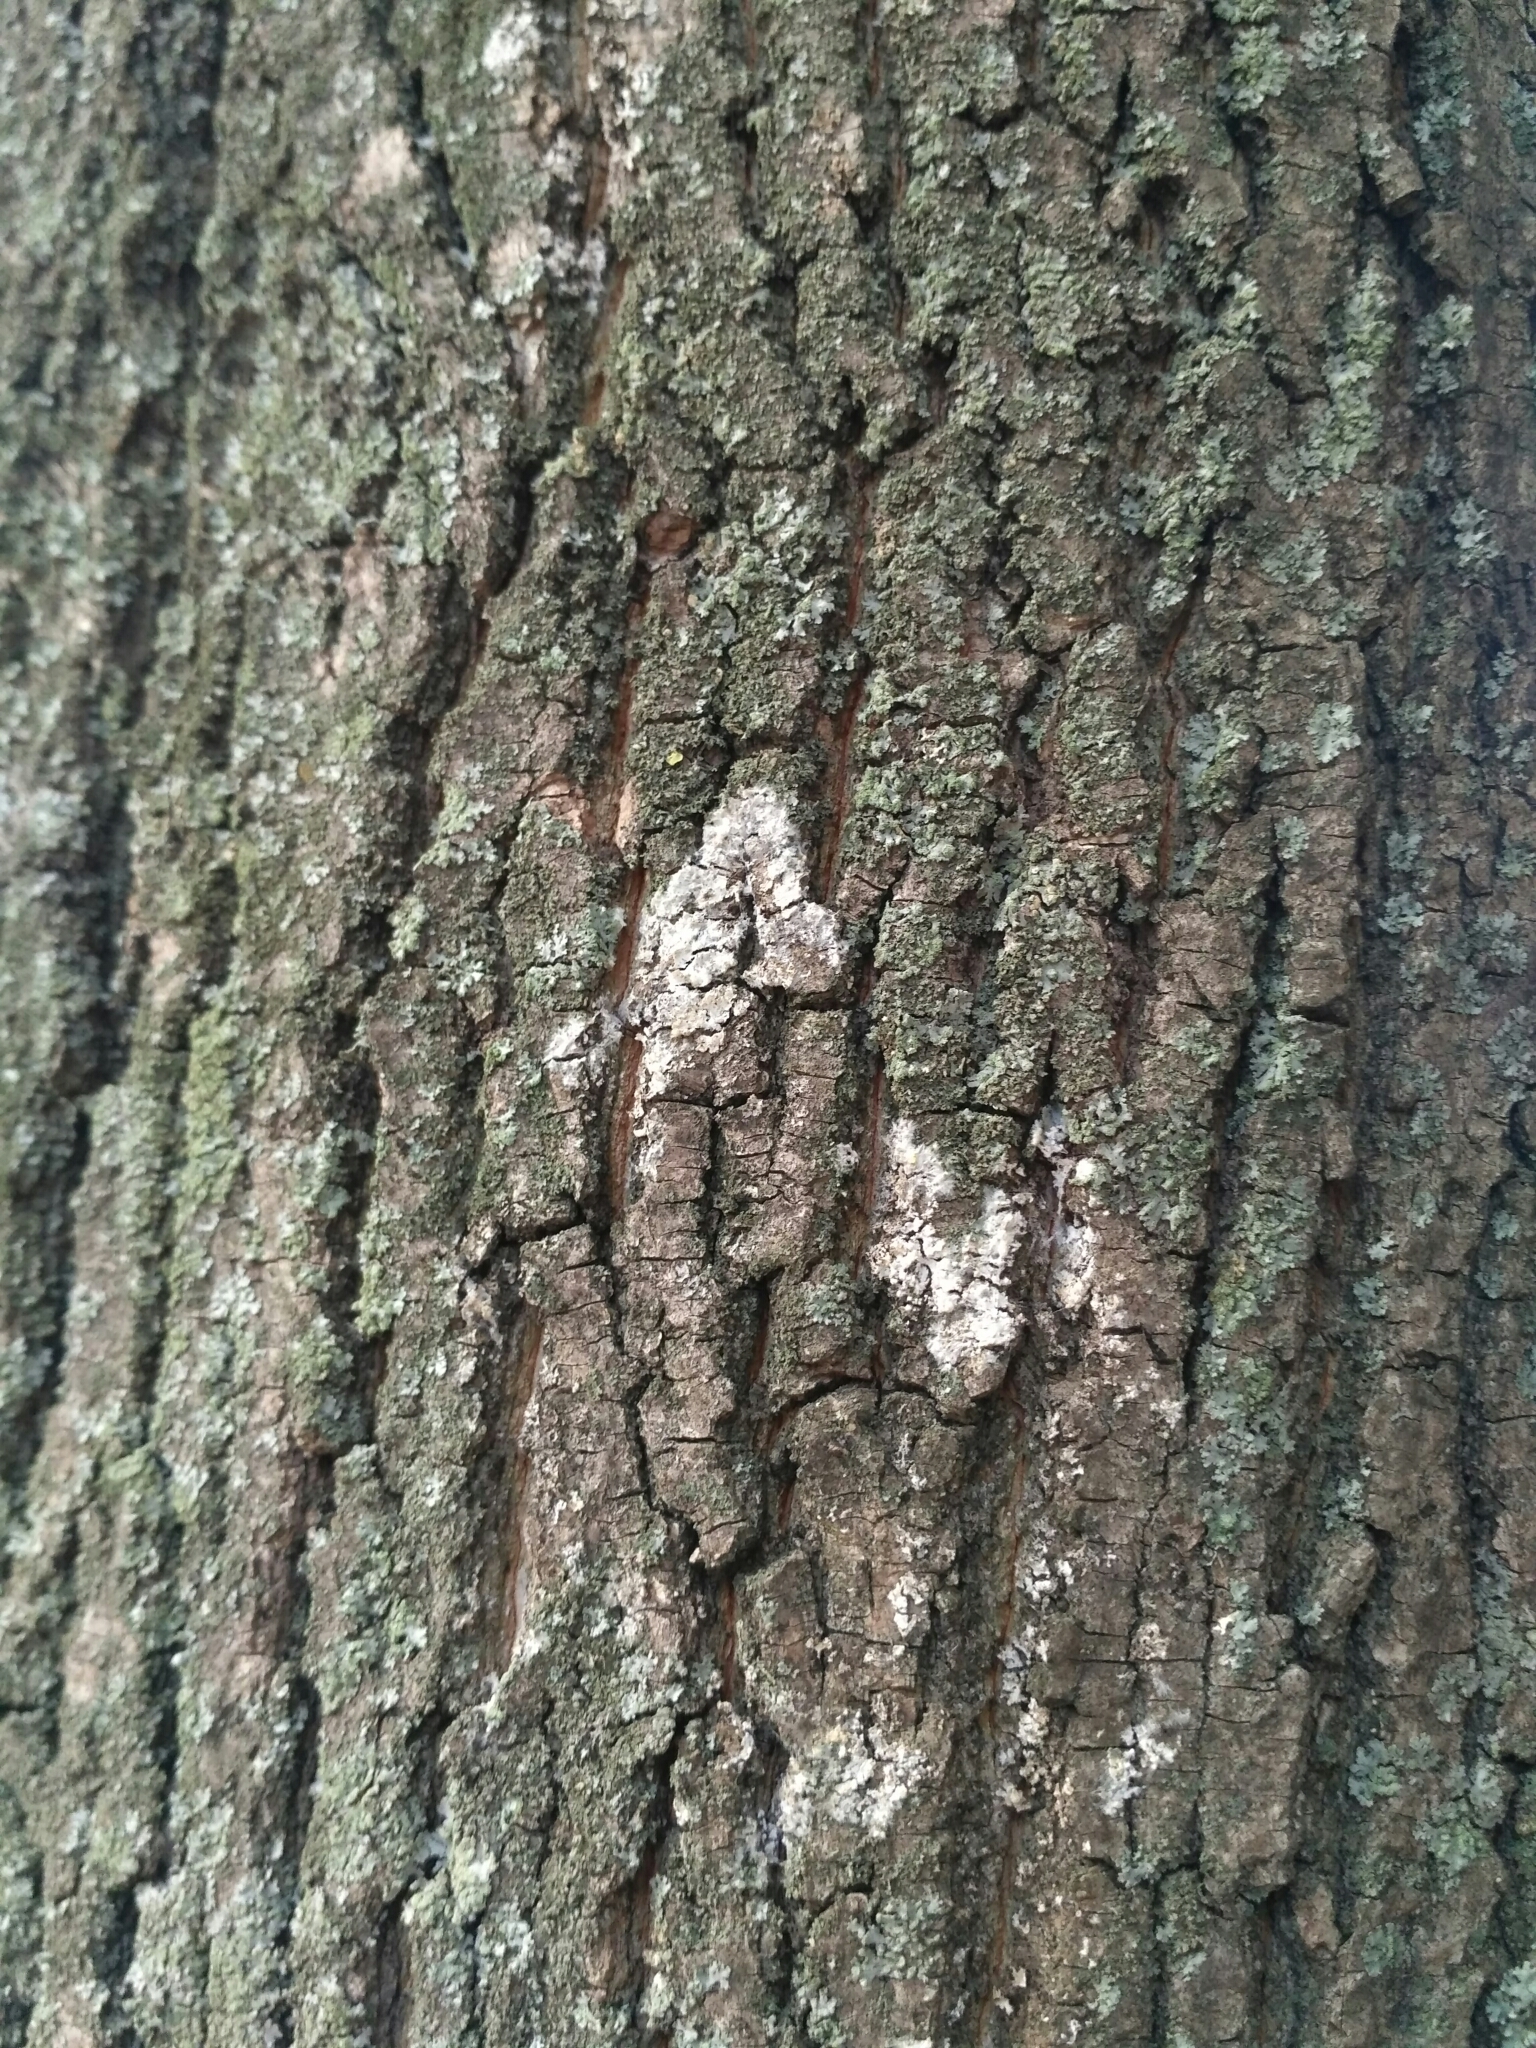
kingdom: Fungi
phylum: Basidiomycota
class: Agaricomycetes
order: Atheliales
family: Atheliaceae
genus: Athelia
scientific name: Athelia arachnoidea
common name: Candelabra duster
